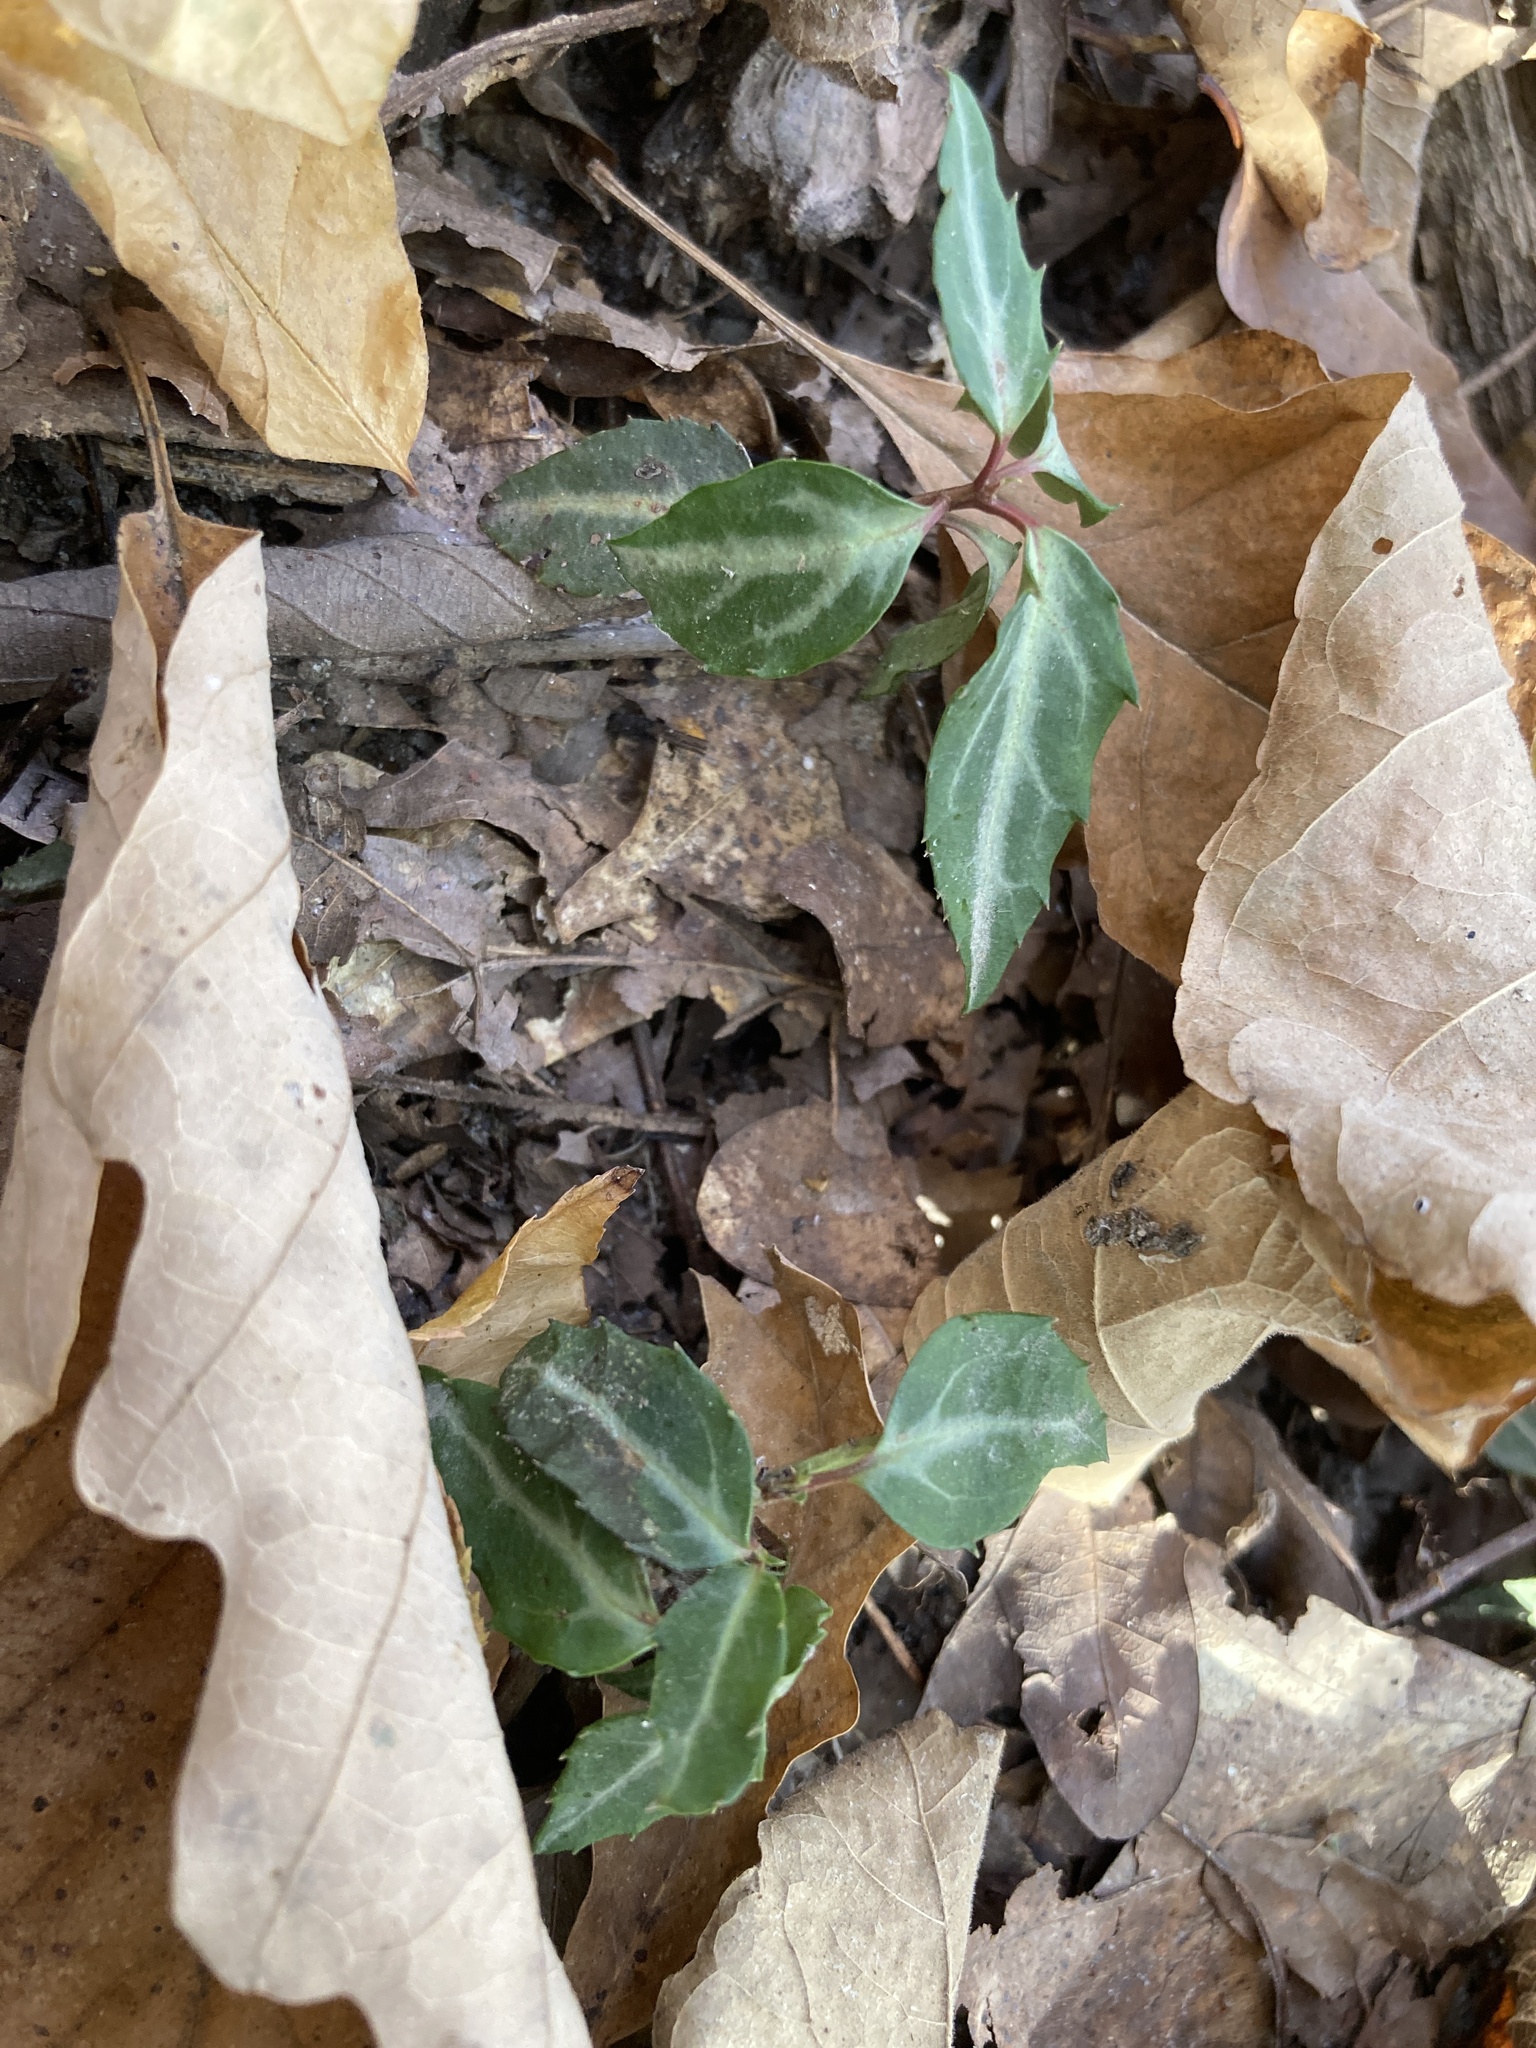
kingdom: Plantae
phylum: Tracheophyta
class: Magnoliopsida
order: Ericales
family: Ericaceae
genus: Chimaphila
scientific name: Chimaphila maculata
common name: Spotted pipsissewa
